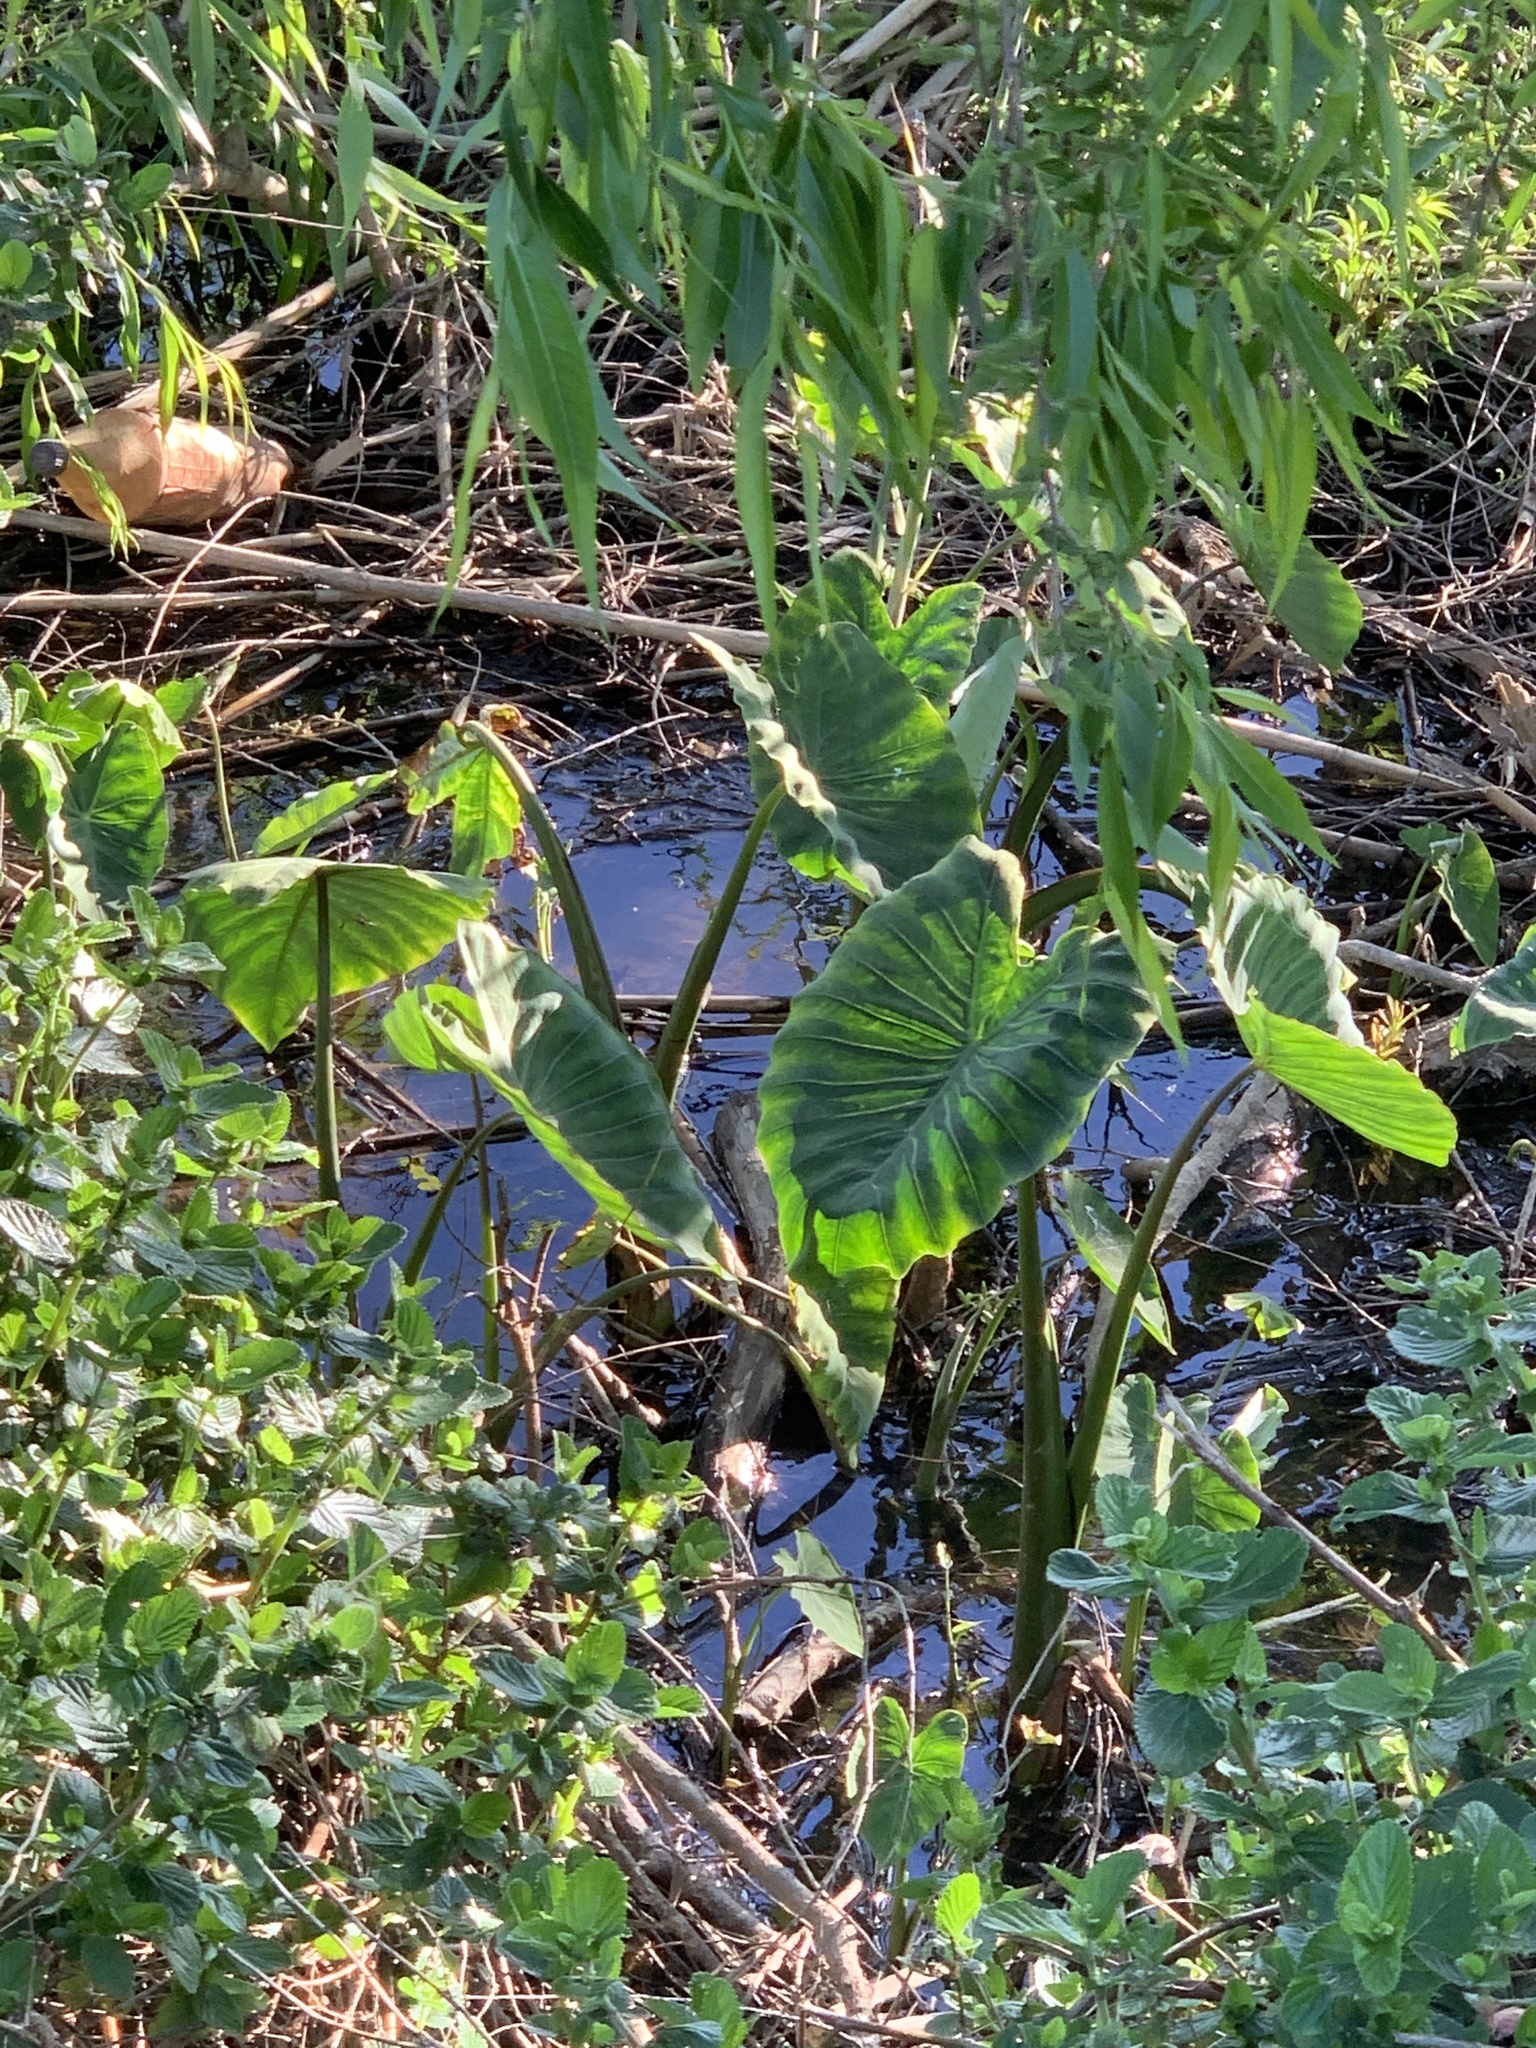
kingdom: Plantae
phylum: Tracheophyta
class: Liliopsida
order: Alismatales
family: Araceae
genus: Colocasia
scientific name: Colocasia esculenta
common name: Taro
